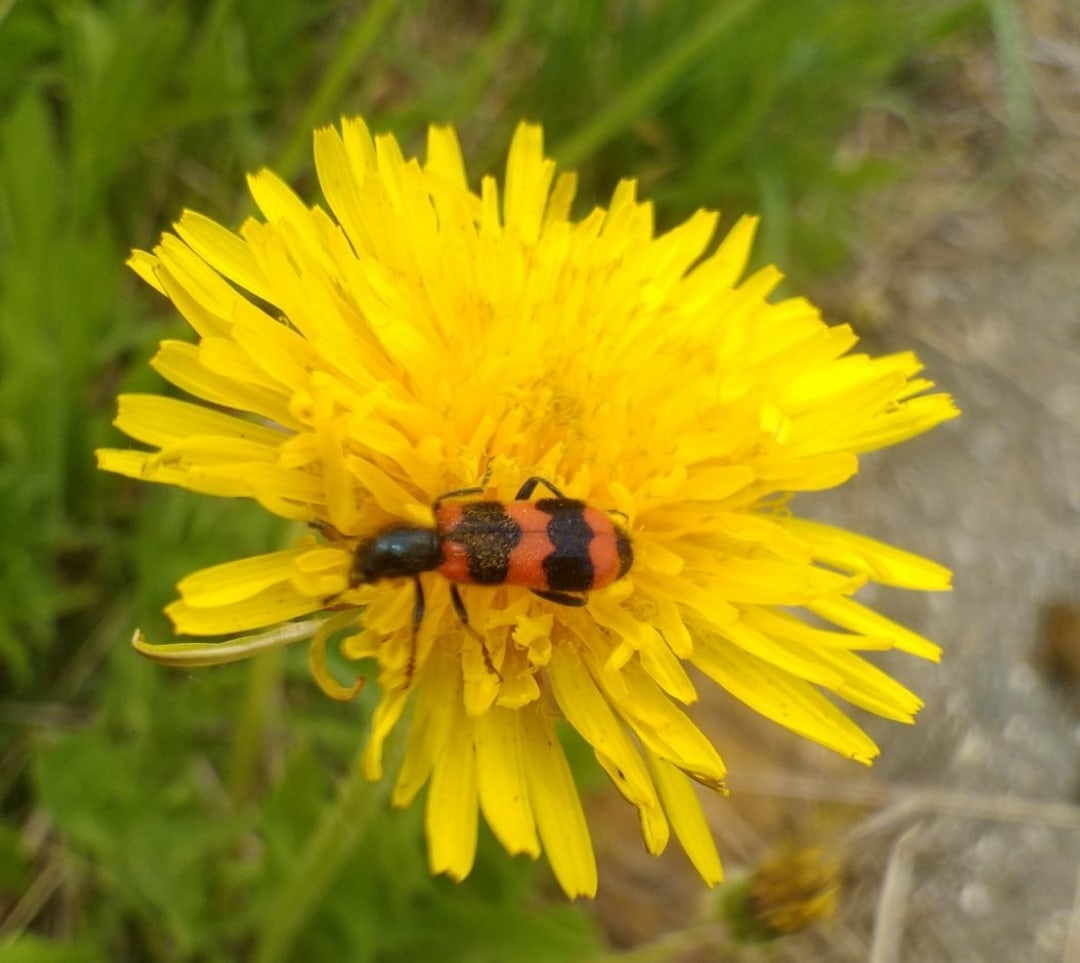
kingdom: Animalia
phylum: Arthropoda
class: Insecta
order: Coleoptera
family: Cleridae
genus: Trichodes
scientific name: Trichodes apiarius
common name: Bee-eating beetle
